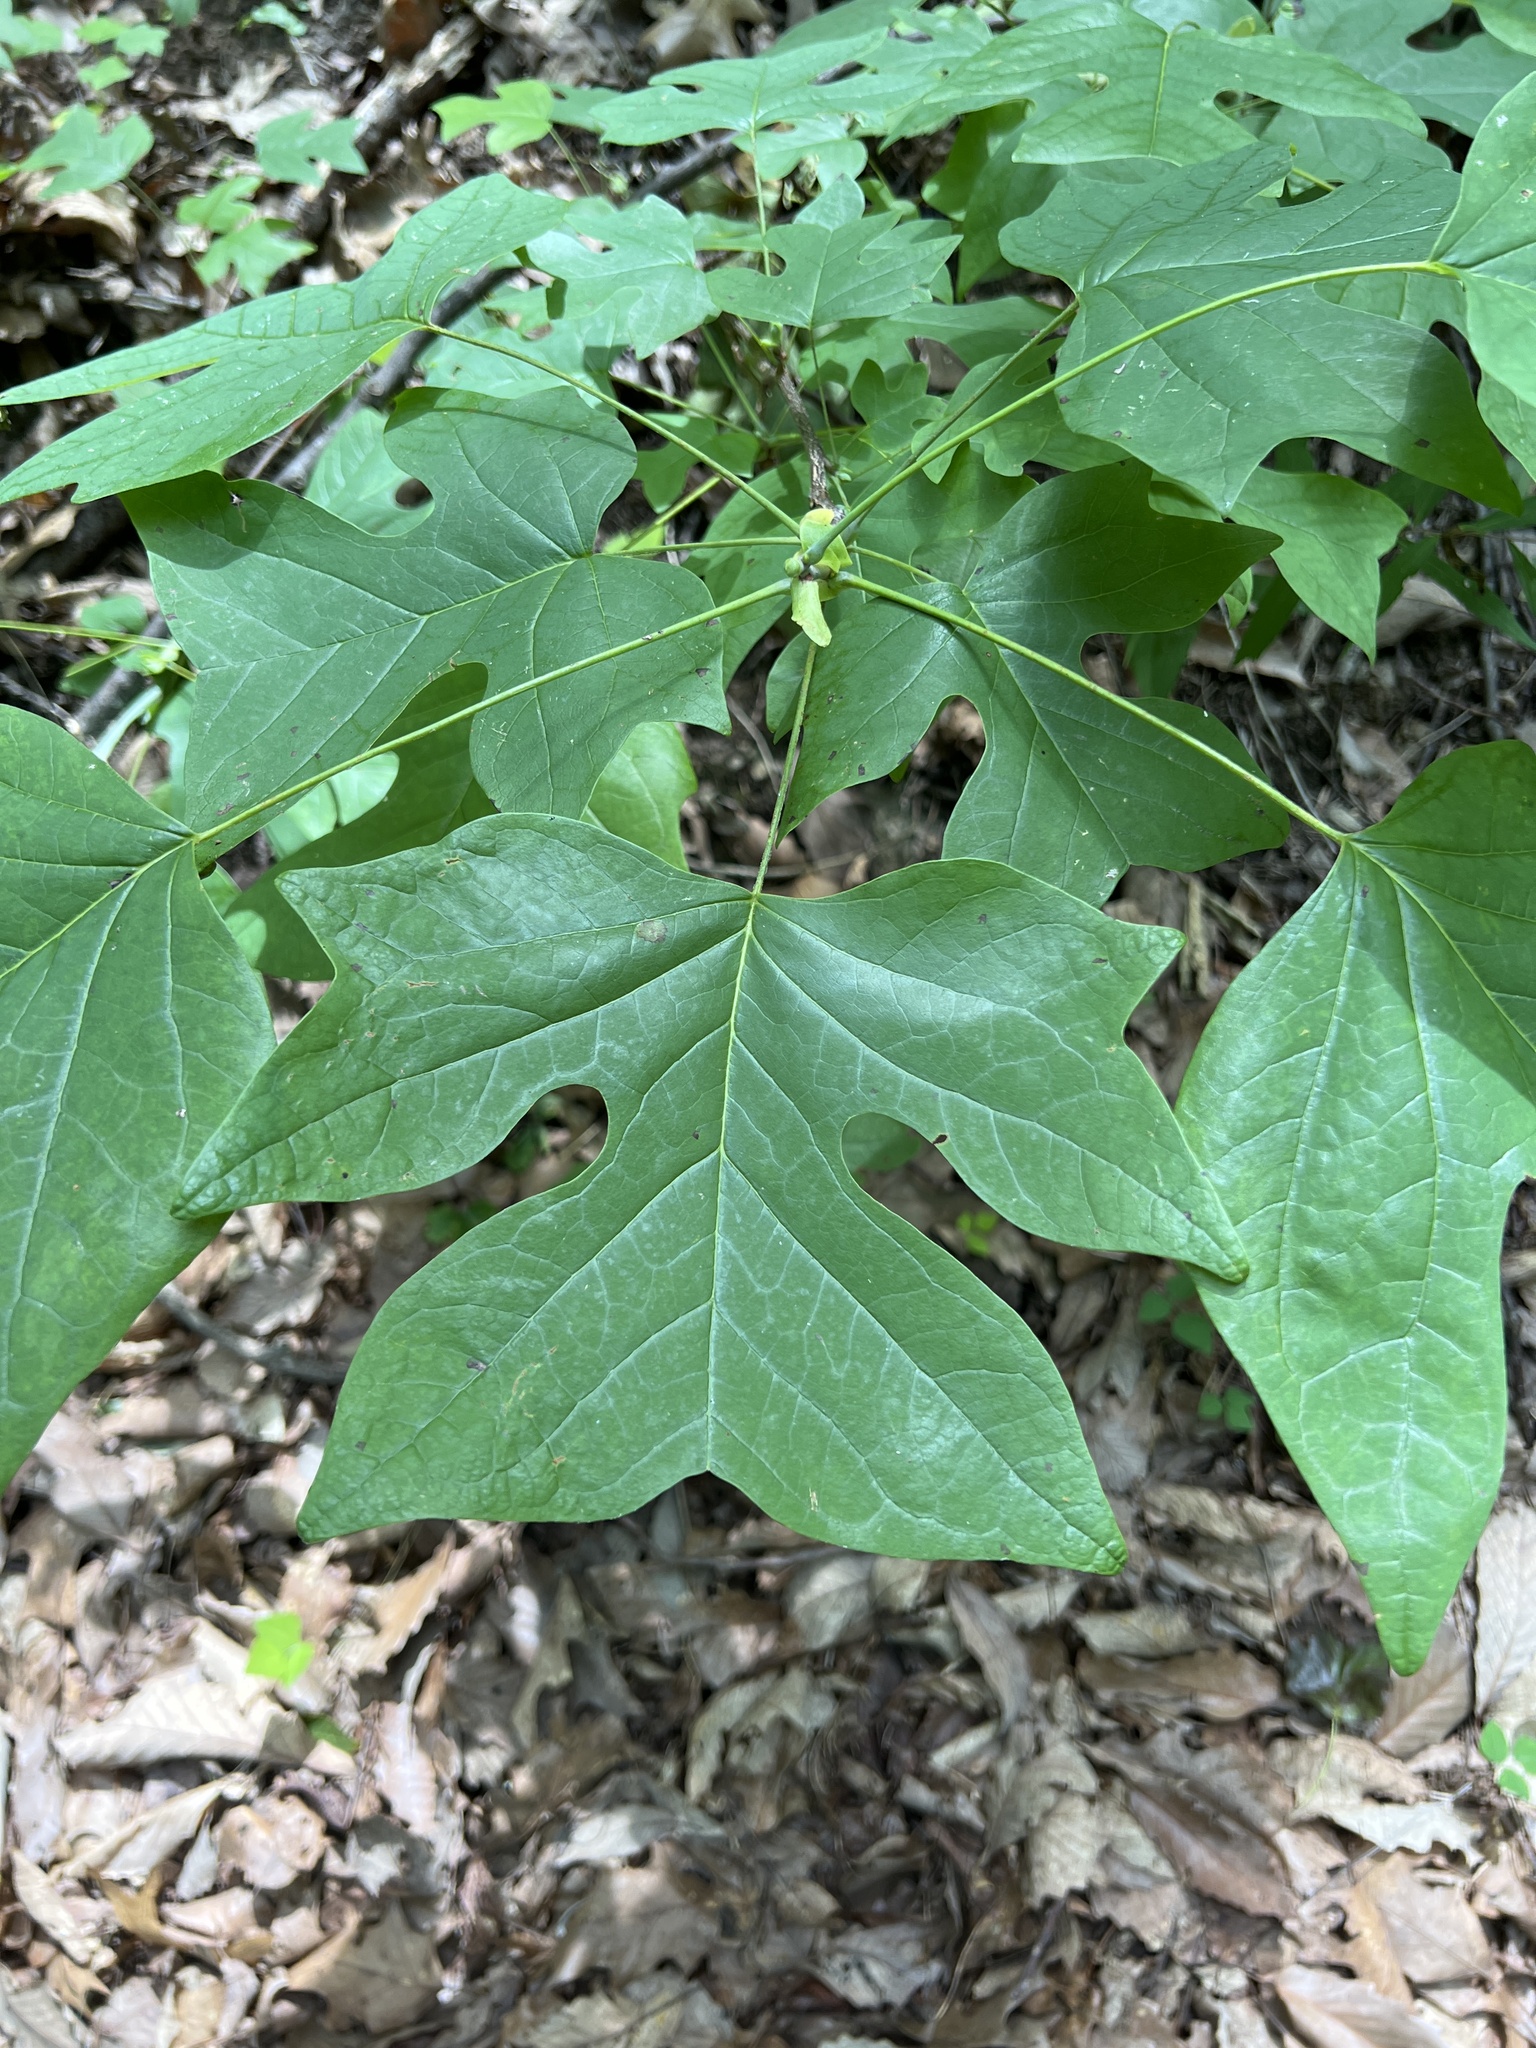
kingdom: Plantae
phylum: Tracheophyta
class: Magnoliopsida
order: Magnoliales
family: Magnoliaceae
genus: Liriodendron
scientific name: Liriodendron tulipifera
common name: Tulip tree
